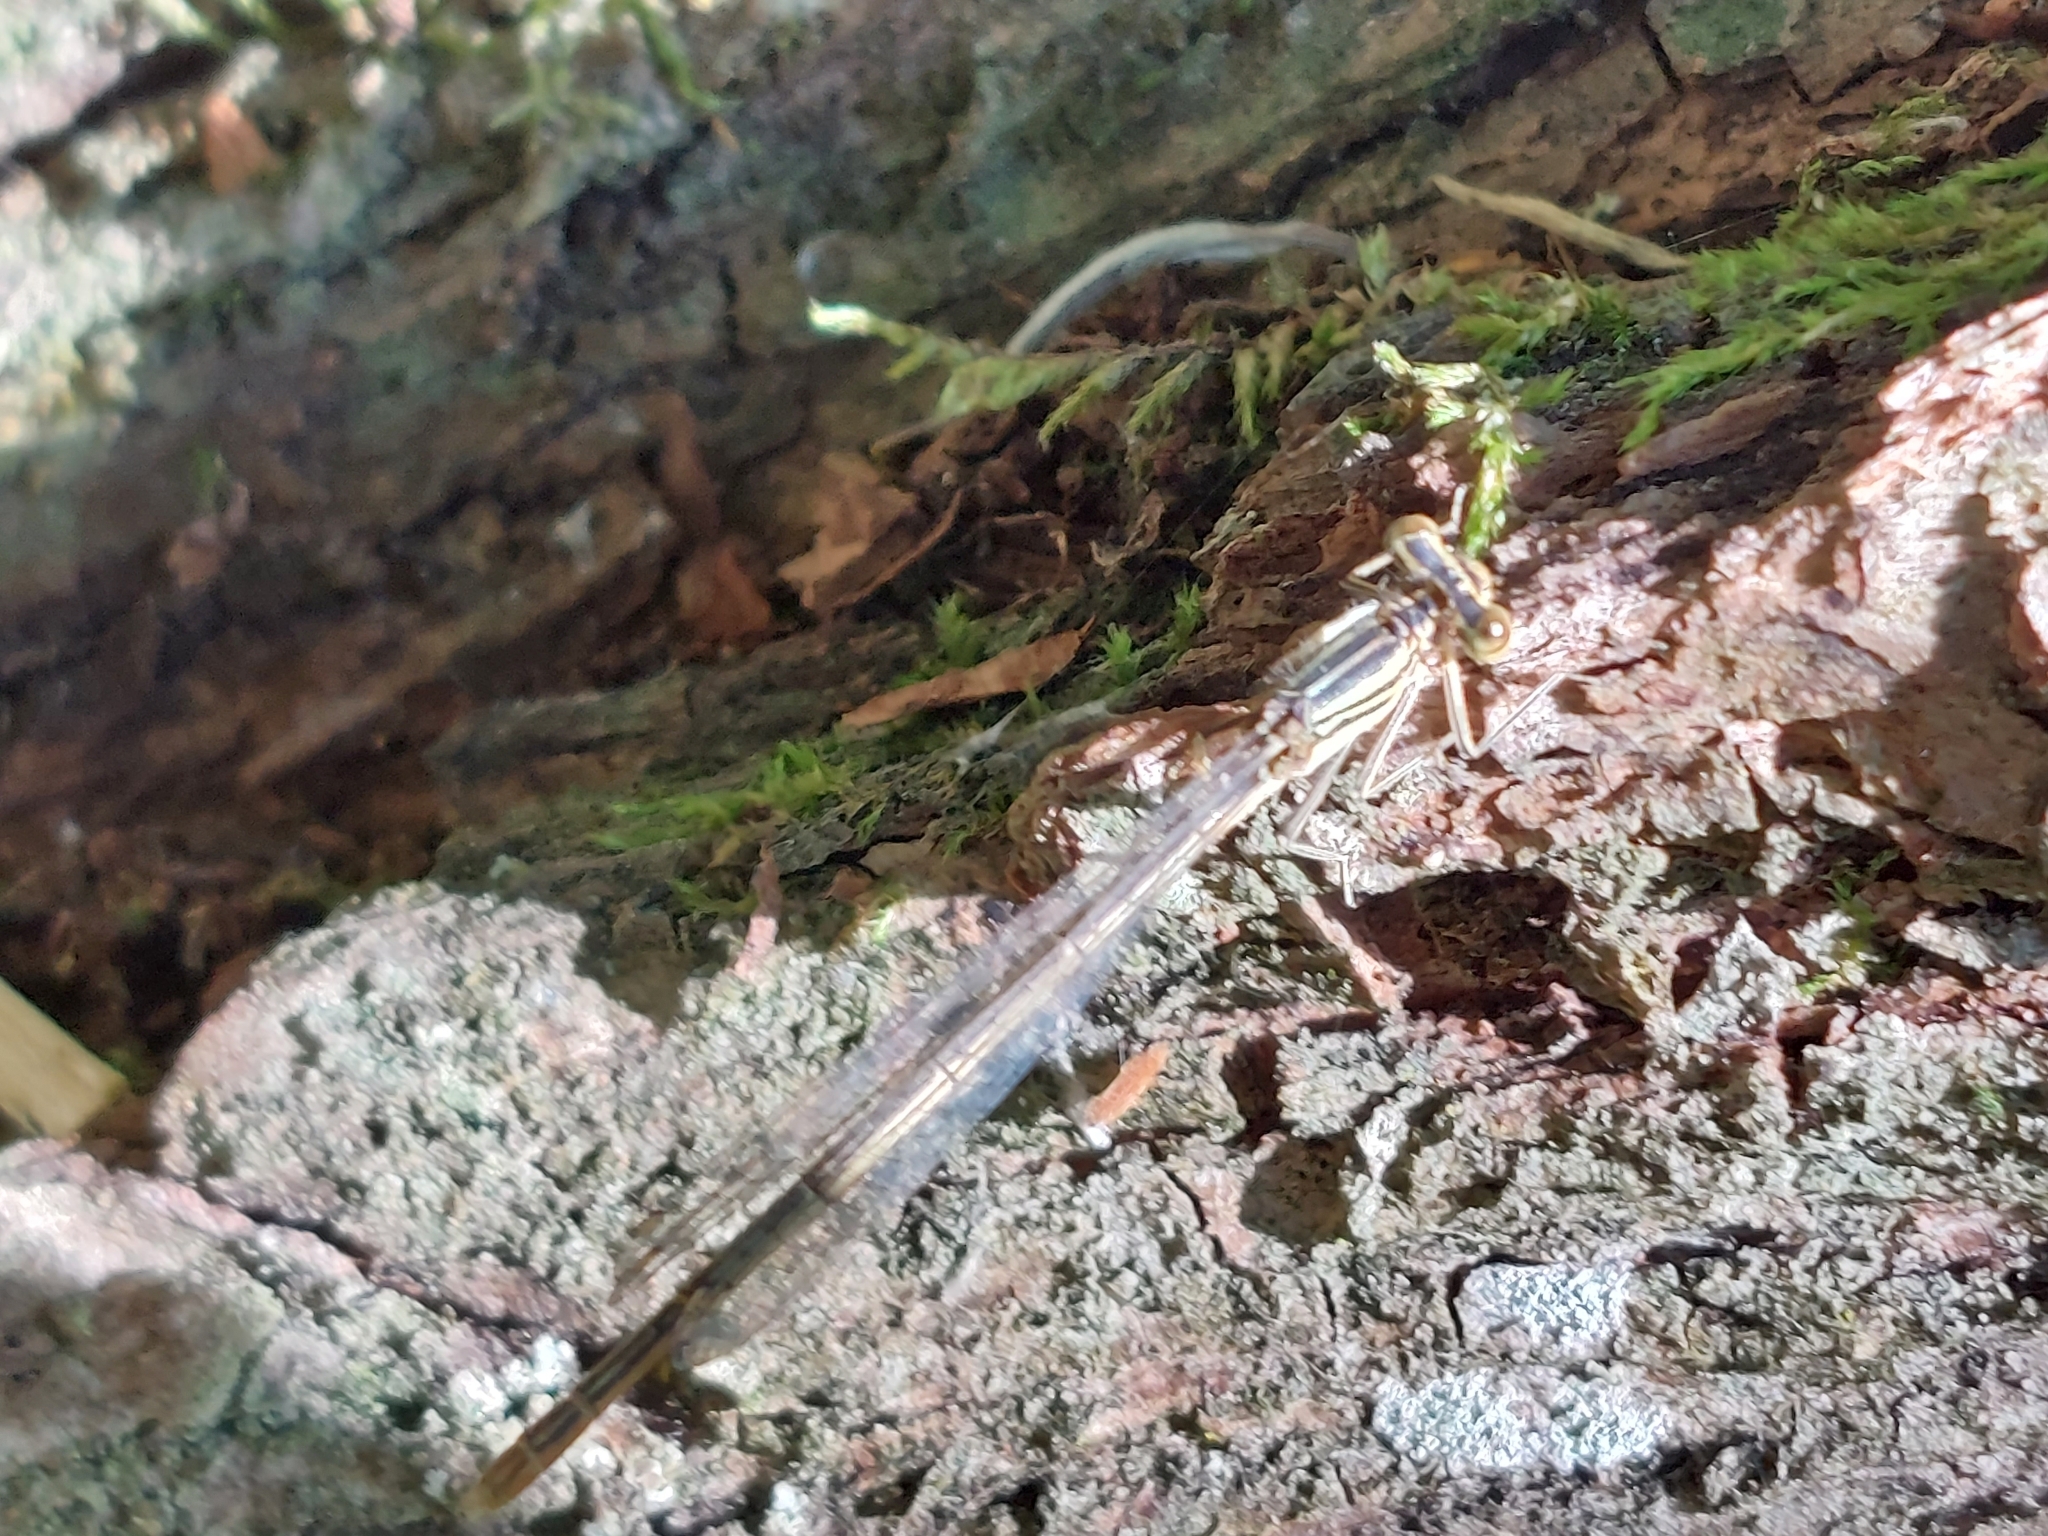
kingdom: Animalia
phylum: Arthropoda
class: Insecta
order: Odonata
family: Platycnemididae
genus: Platycnemis
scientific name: Platycnemis pennipes
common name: White-legged damselfly
